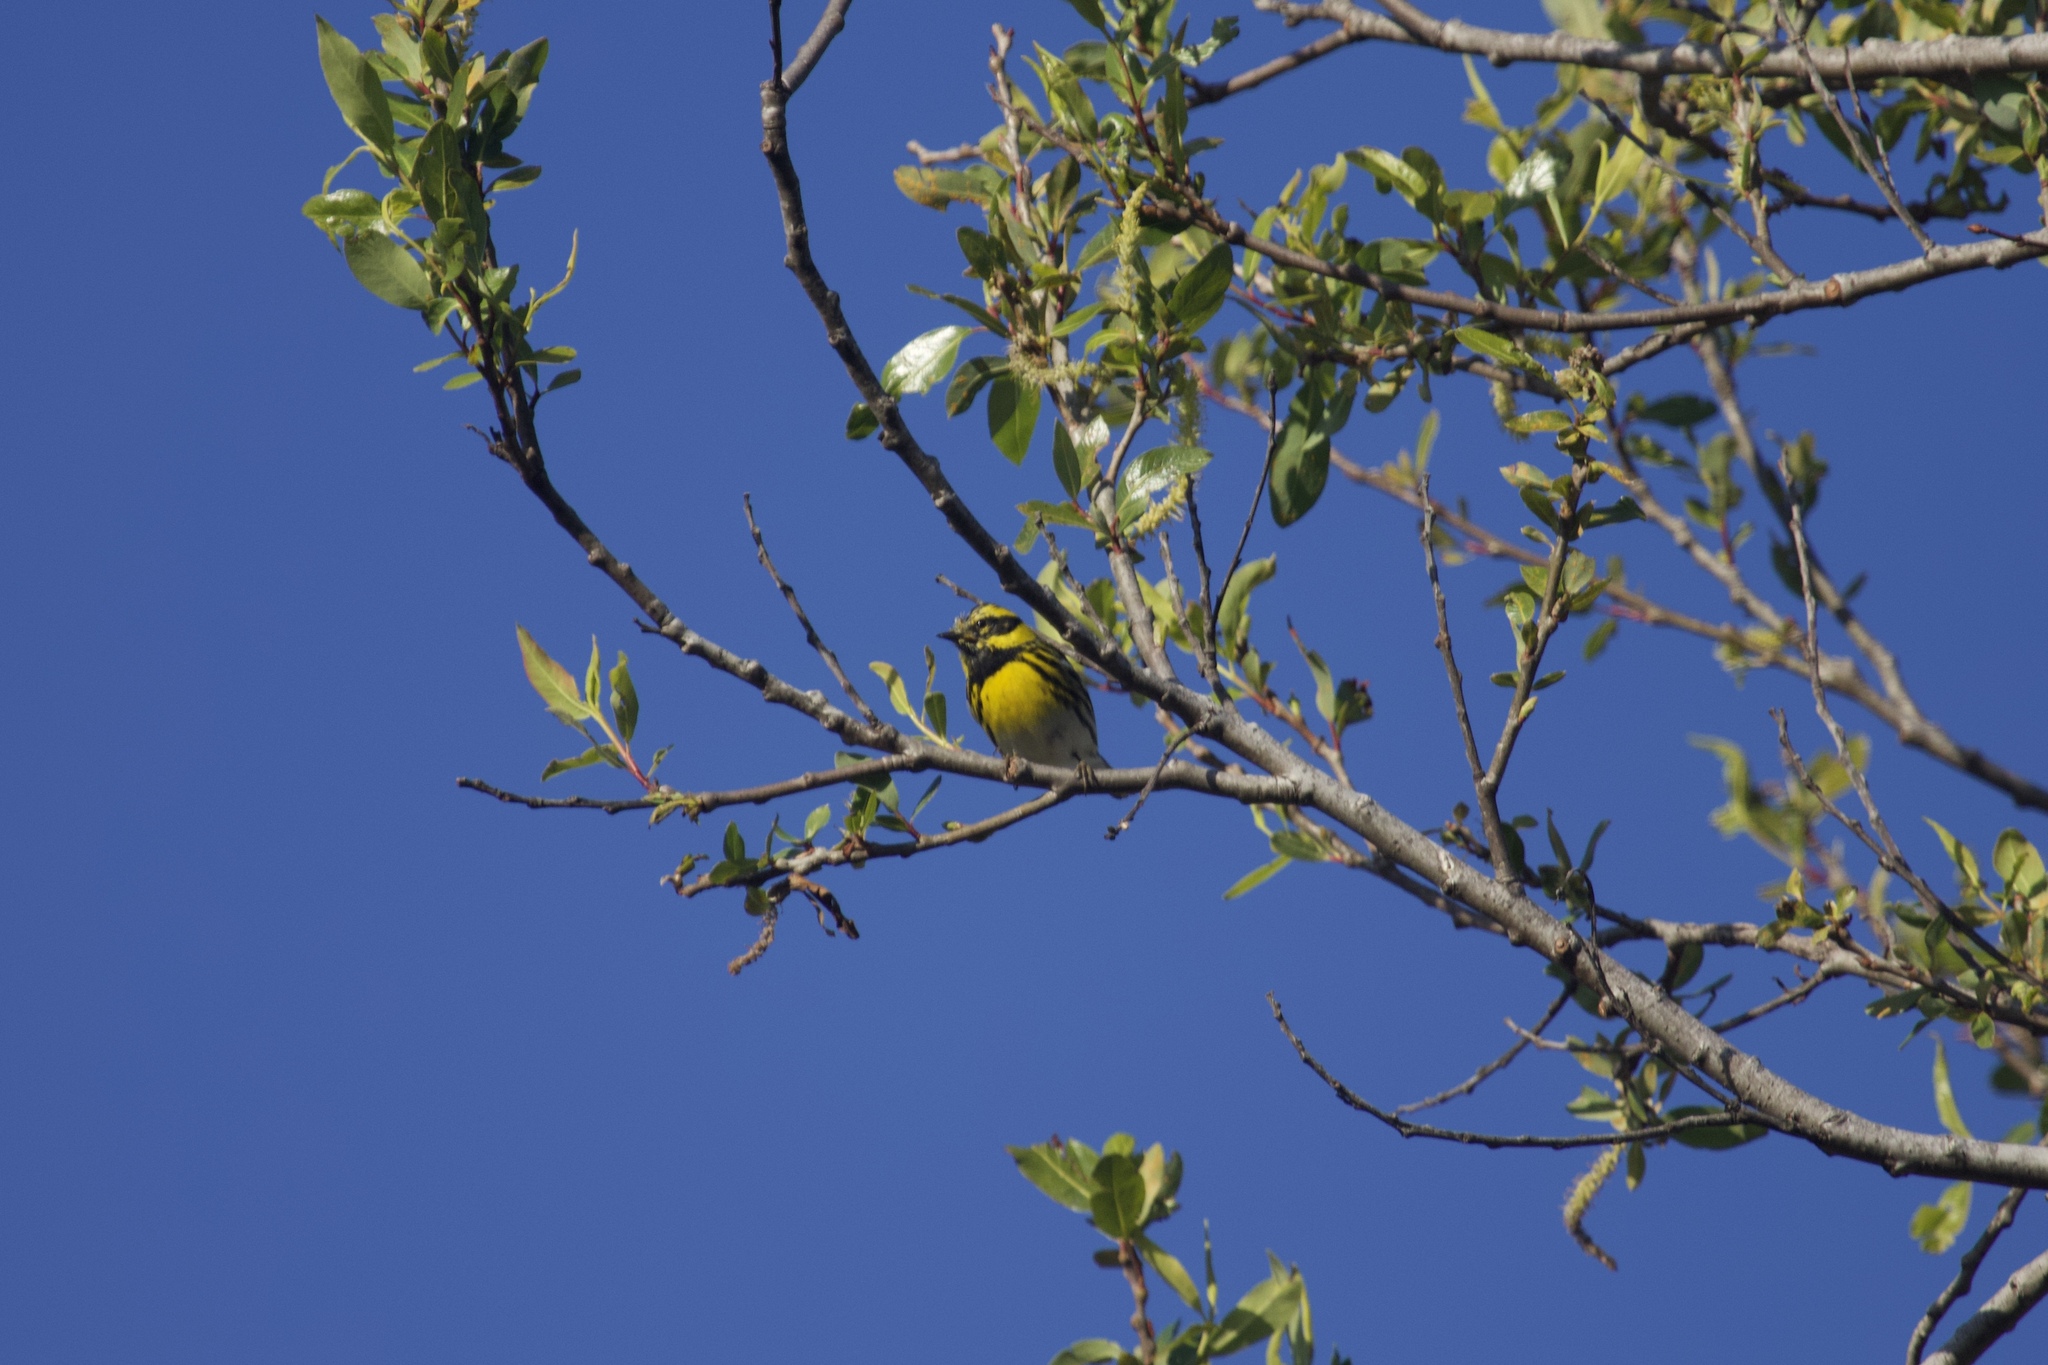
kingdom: Animalia
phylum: Chordata
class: Aves
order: Passeriformes
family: Parulidae
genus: Setophaga
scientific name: Setophaga townsendi
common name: Townsend's warbler
